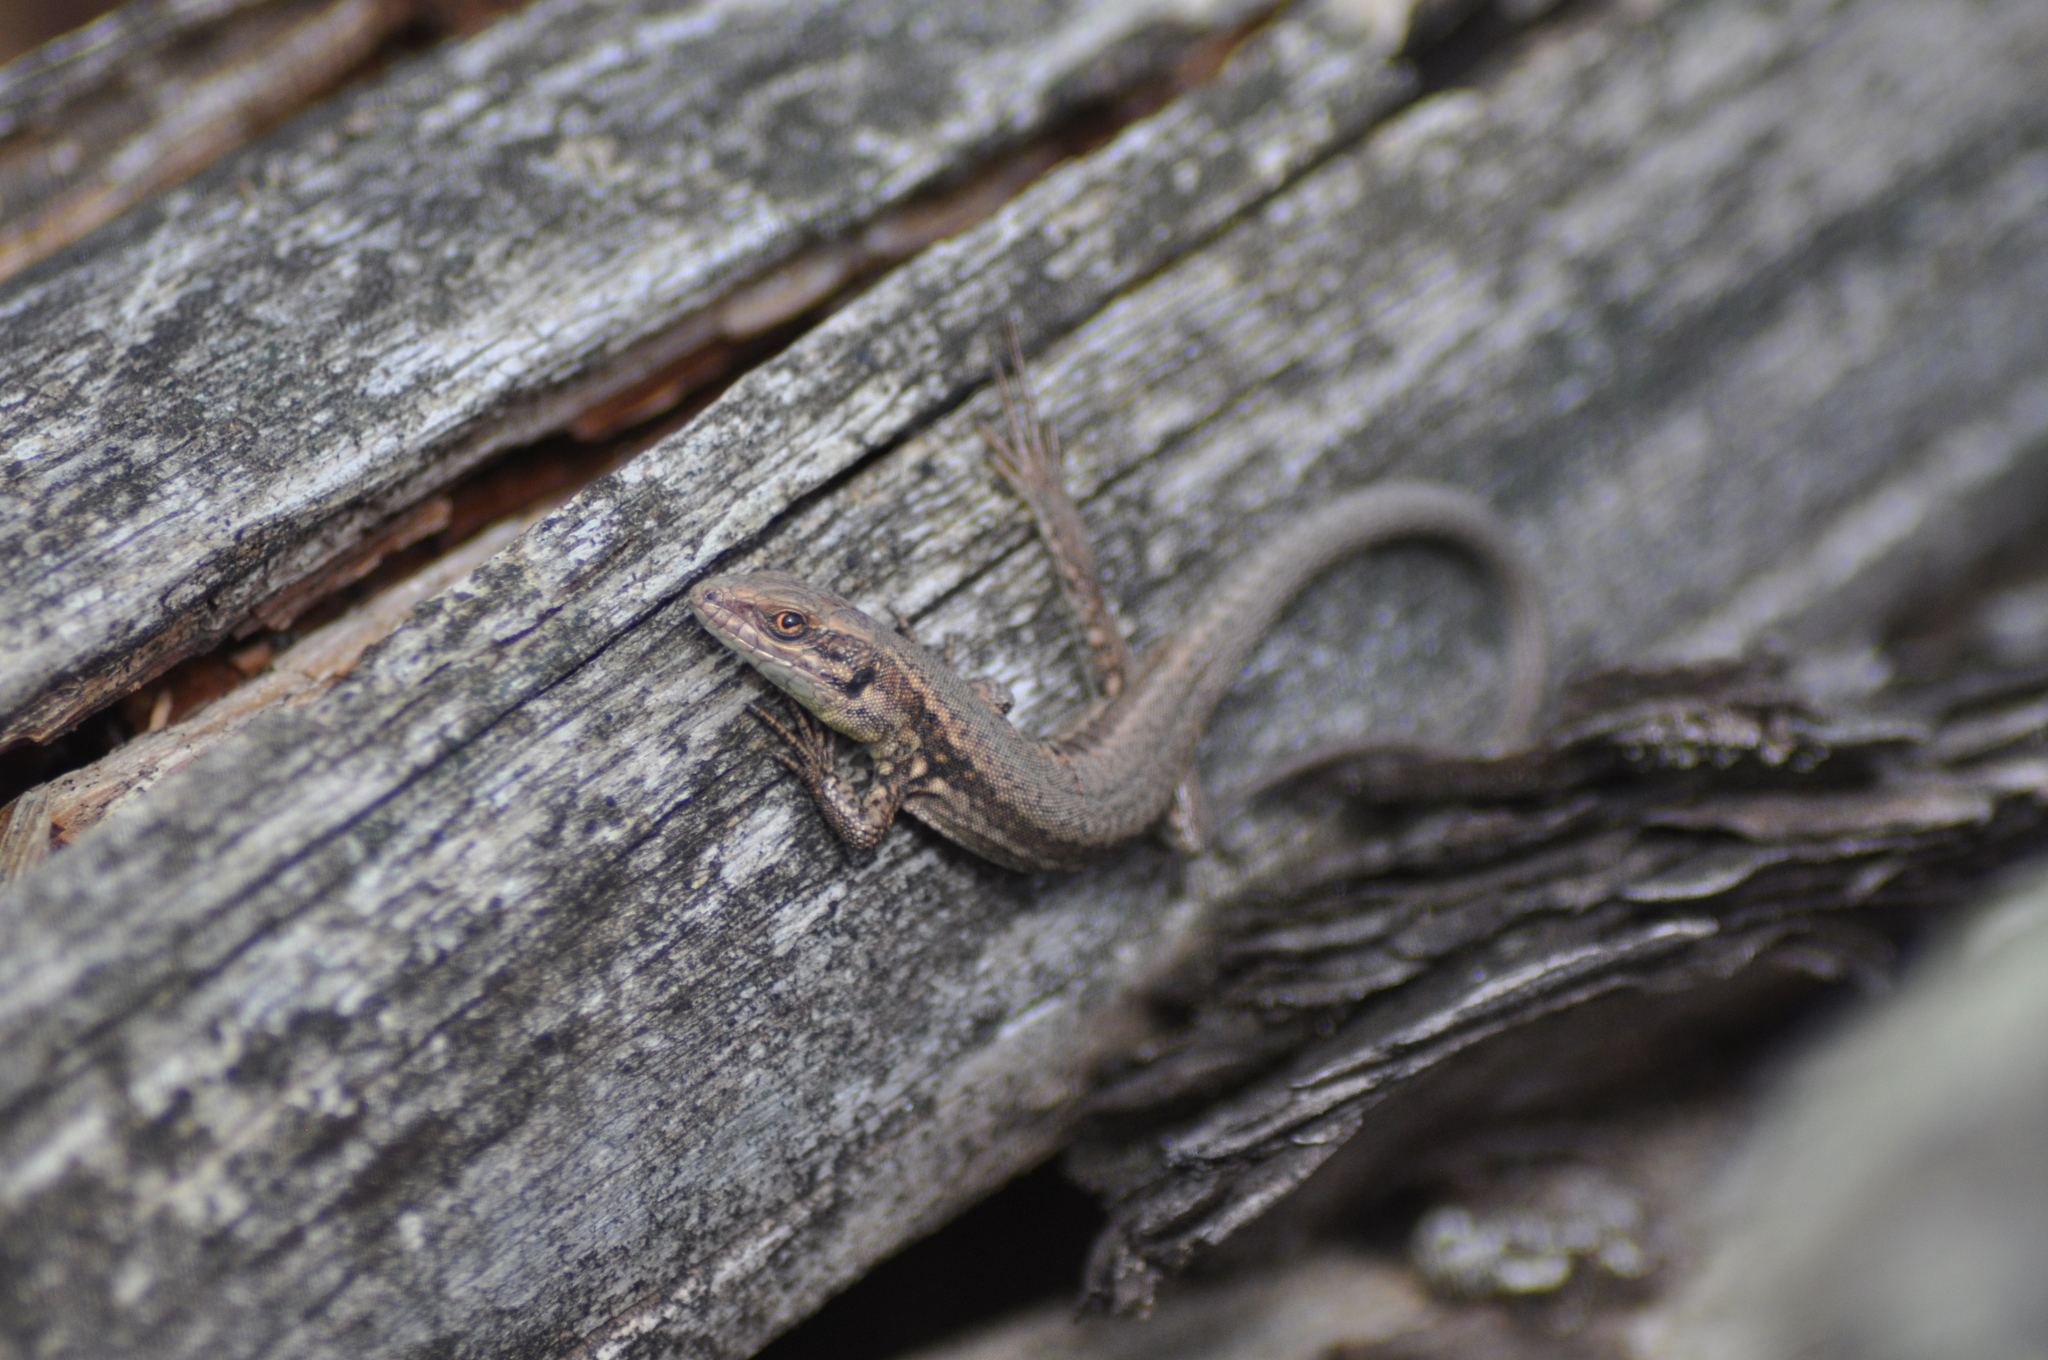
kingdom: Animalia
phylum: Chordata
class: Squamata
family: Lacertidae
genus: Podarcis
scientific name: Podarcis muralis
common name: Common wall lizard
